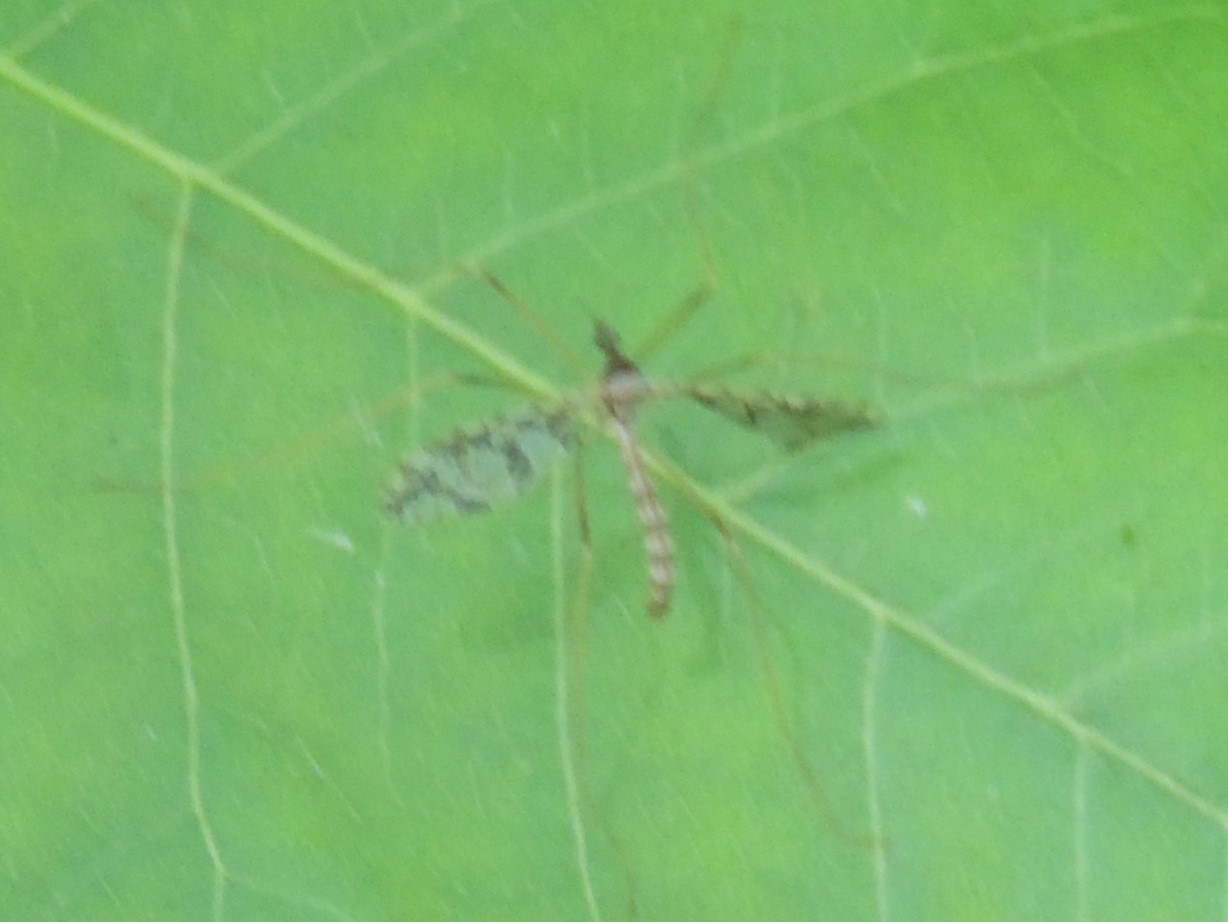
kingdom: Animalia
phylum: Arthropoda
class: Insecta
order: Diptera
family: Limoniidae
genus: Epiphragma
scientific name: Epiphragma solatrix
